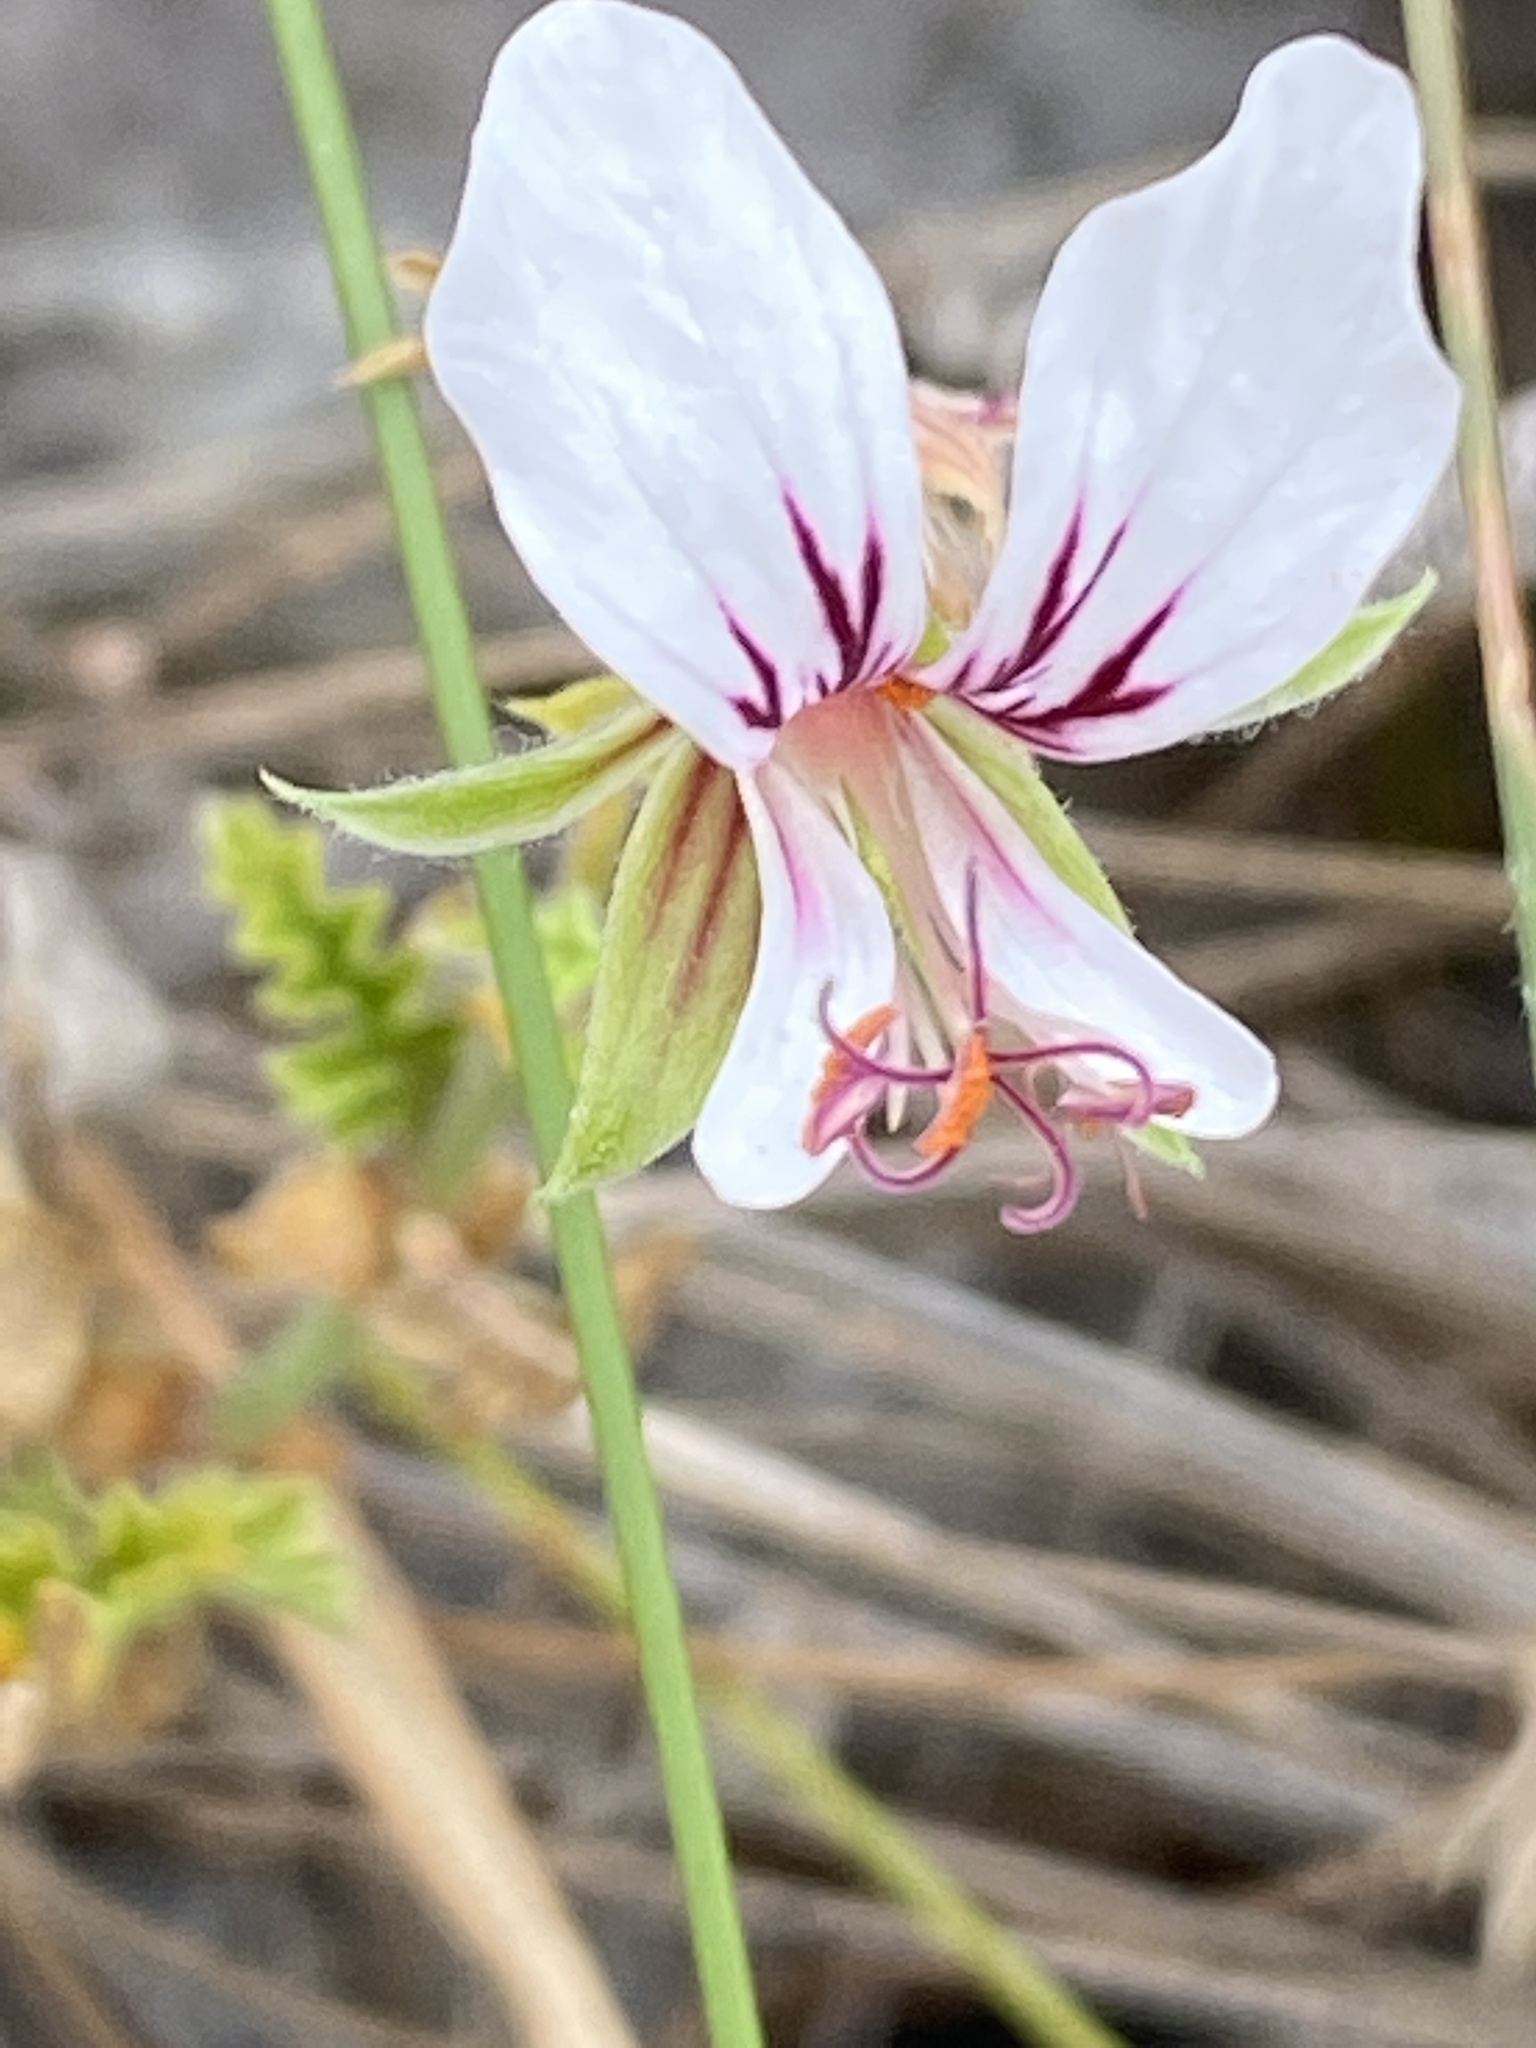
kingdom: Plantae
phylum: Tracheophyta
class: Magnoliopsida
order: Geraniales
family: Geraniaceae
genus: Pelargonium
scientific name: Pelargonium candicans
